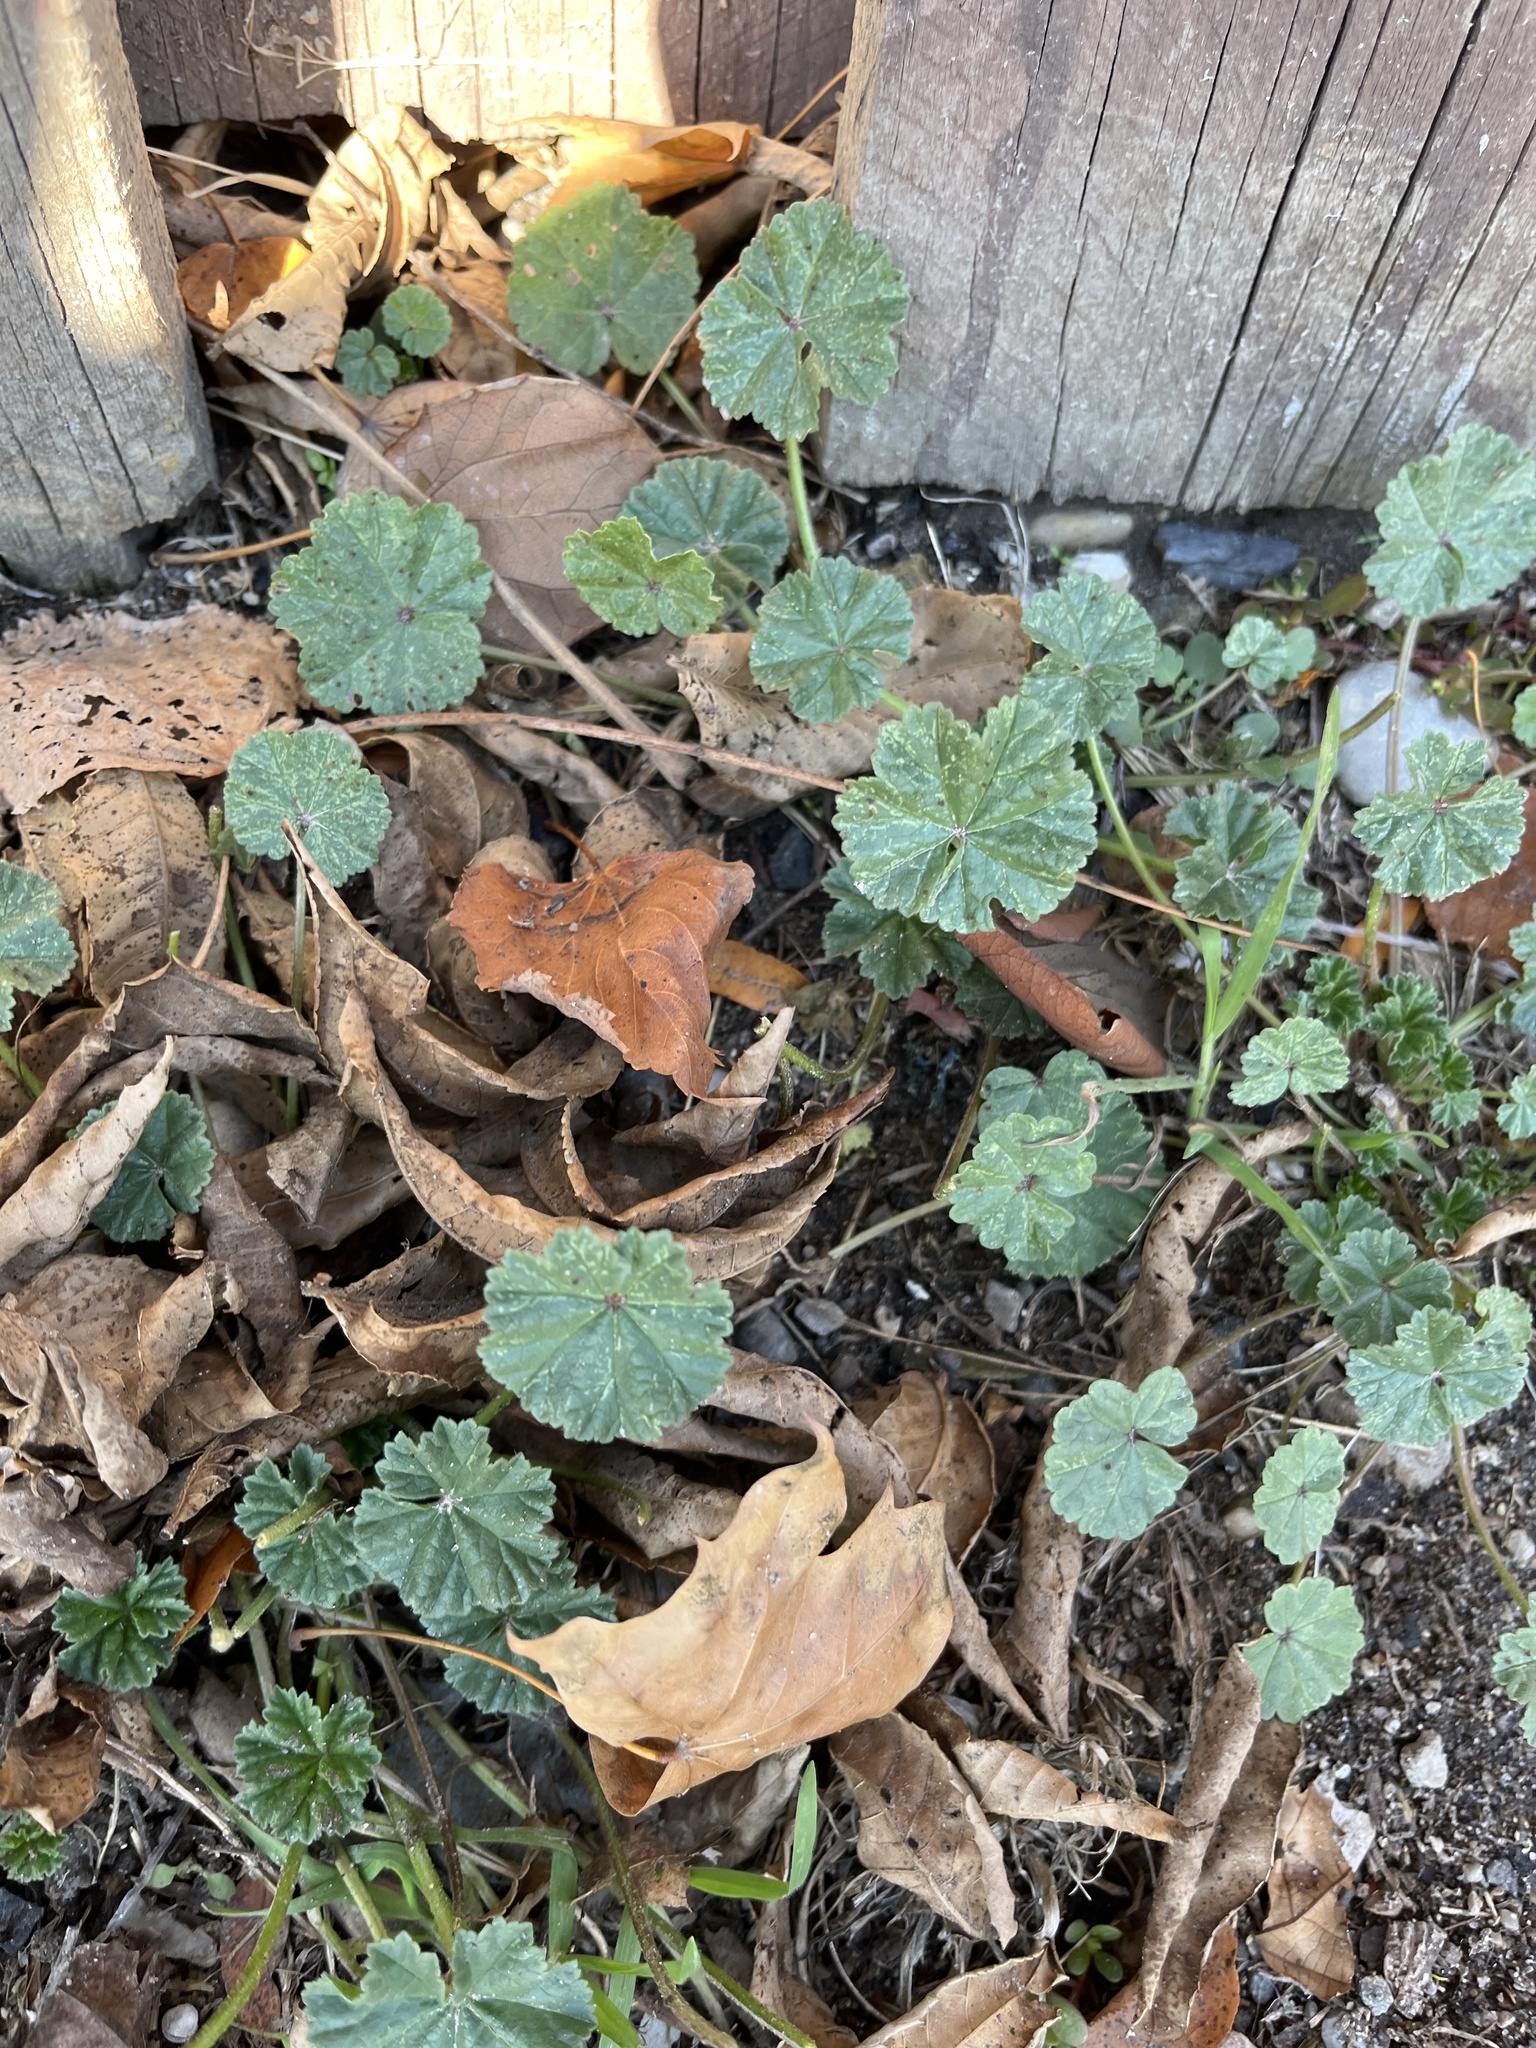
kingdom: Plantae
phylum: Tracheophyta
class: Magnoliopsida
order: Malvales
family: Malvaceae
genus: Malva
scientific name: Malva
